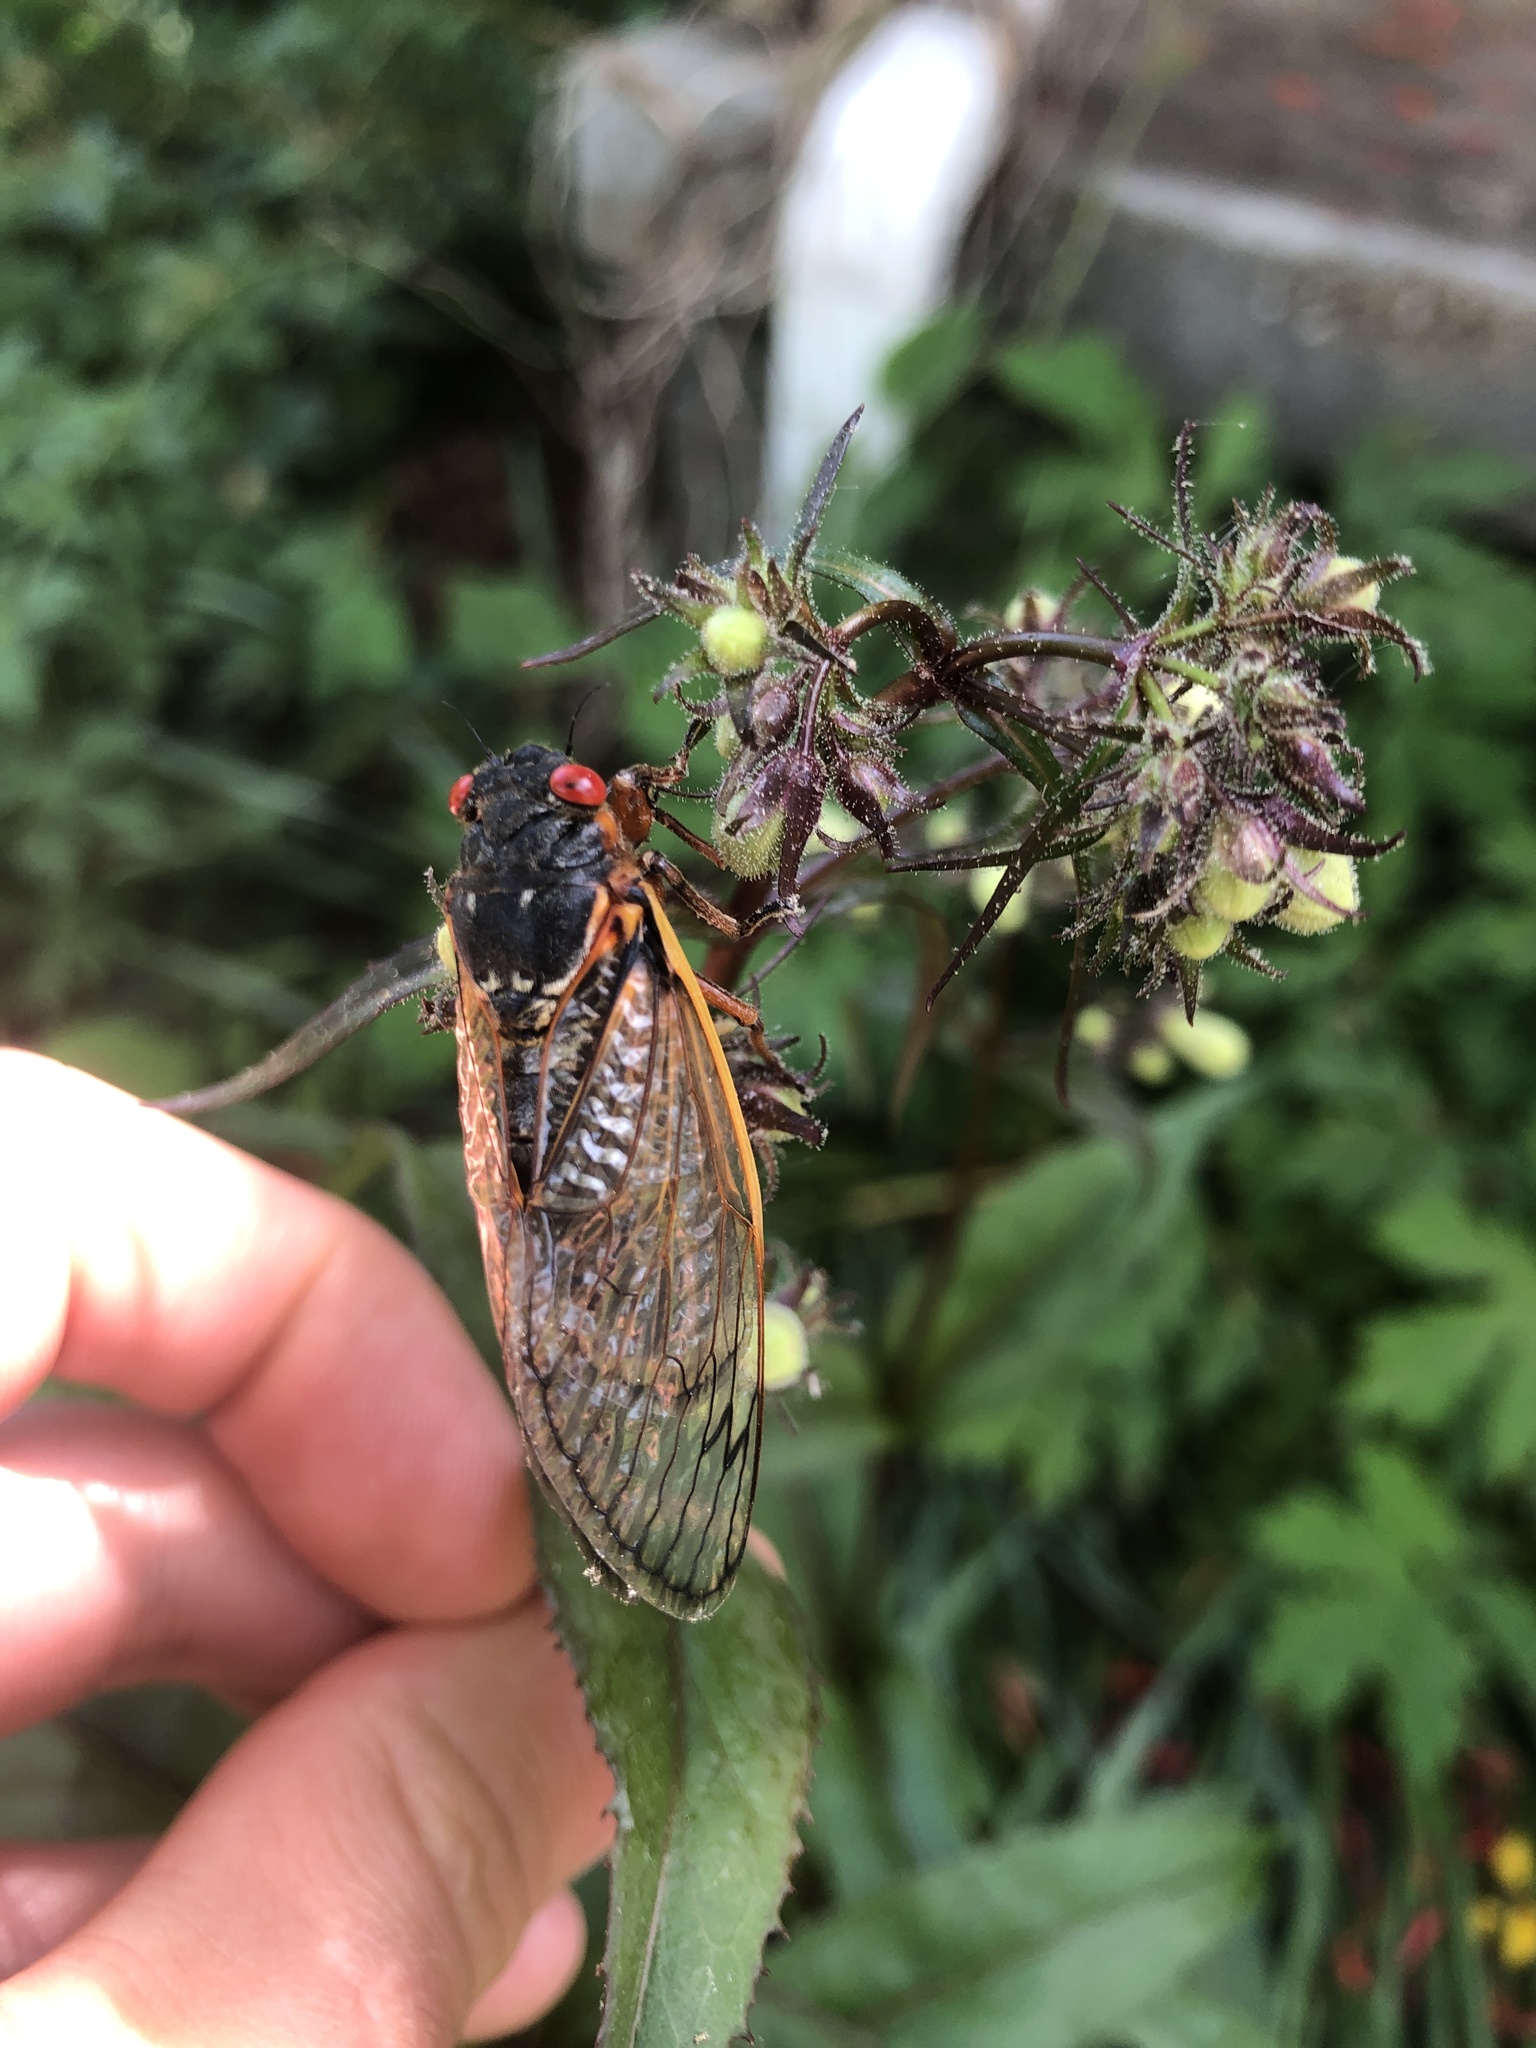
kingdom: Animalia
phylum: Arthropoda
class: Insecta
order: Hemiptera
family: Cicadidae
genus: Magicicada
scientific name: Magicicada septendecim
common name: Periodical cicada
